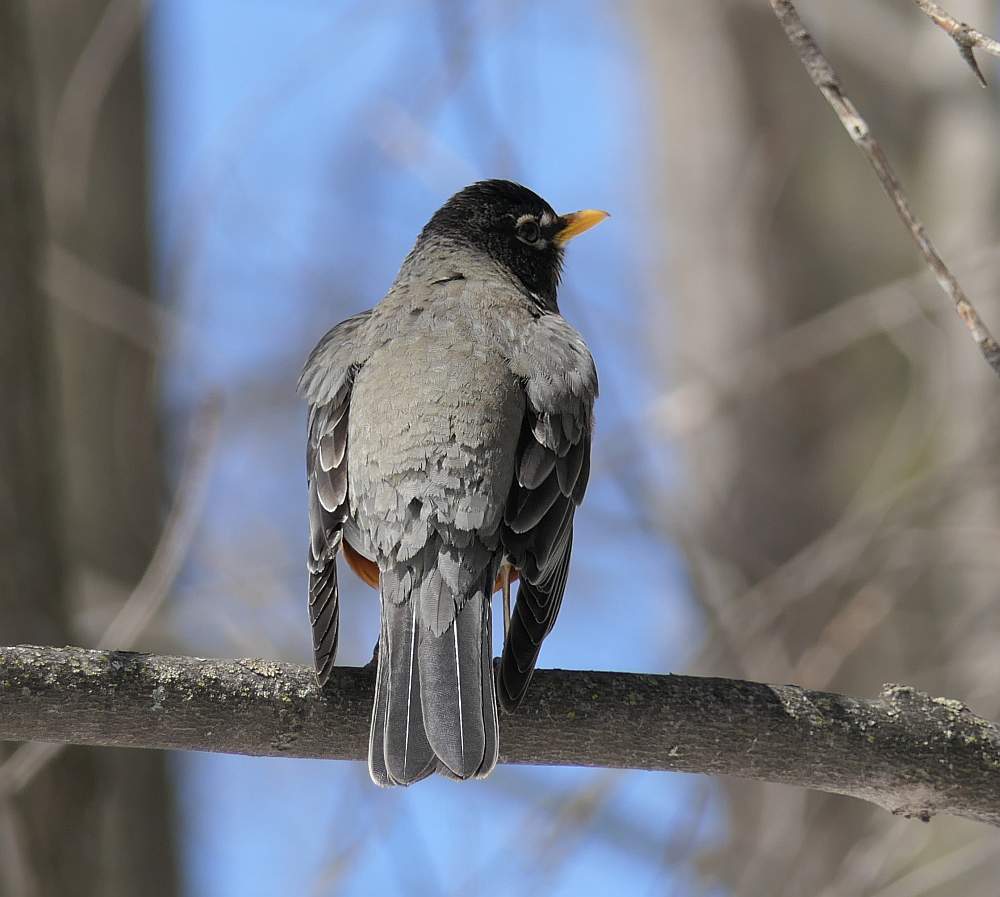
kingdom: Animalia
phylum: Chordata
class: Aves
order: Passeriformes
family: Turdidae
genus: Turdus
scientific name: Turdus migratorius
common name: American robin
